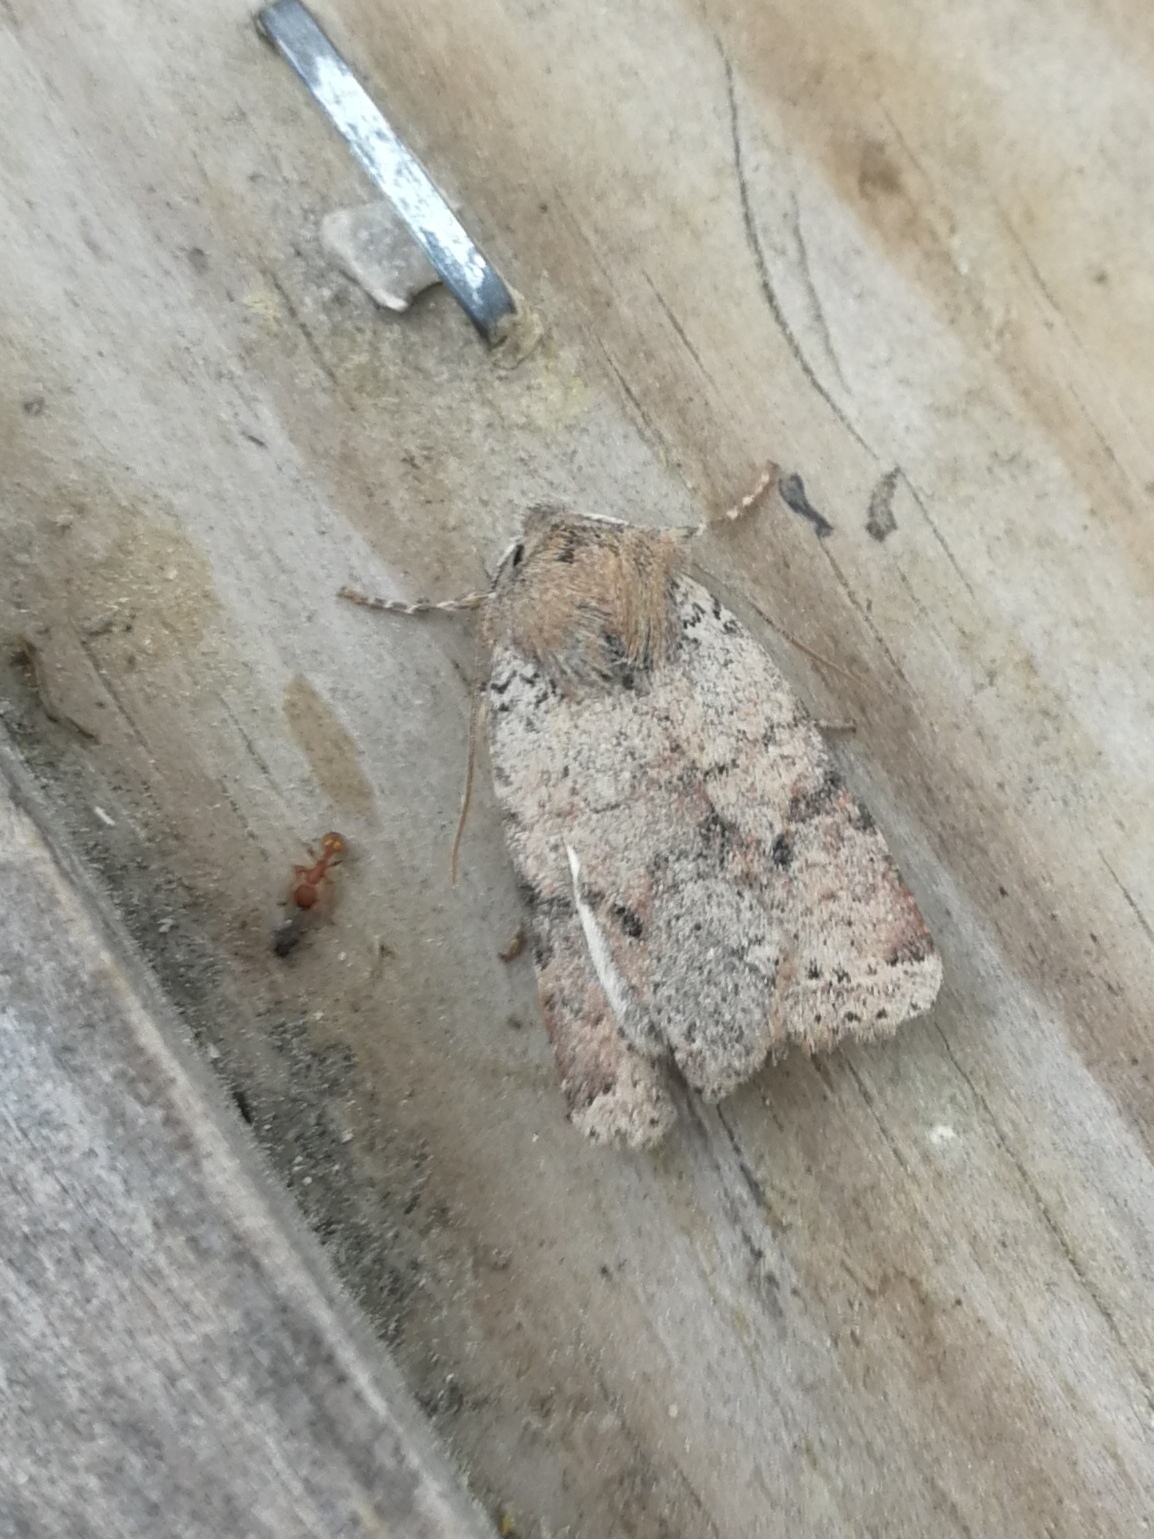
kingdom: Animalia
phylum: Arthropoda
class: Insecta
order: Lepidoptera
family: Noctuidae
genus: Agrochola
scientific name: Agrochola ruticilla
